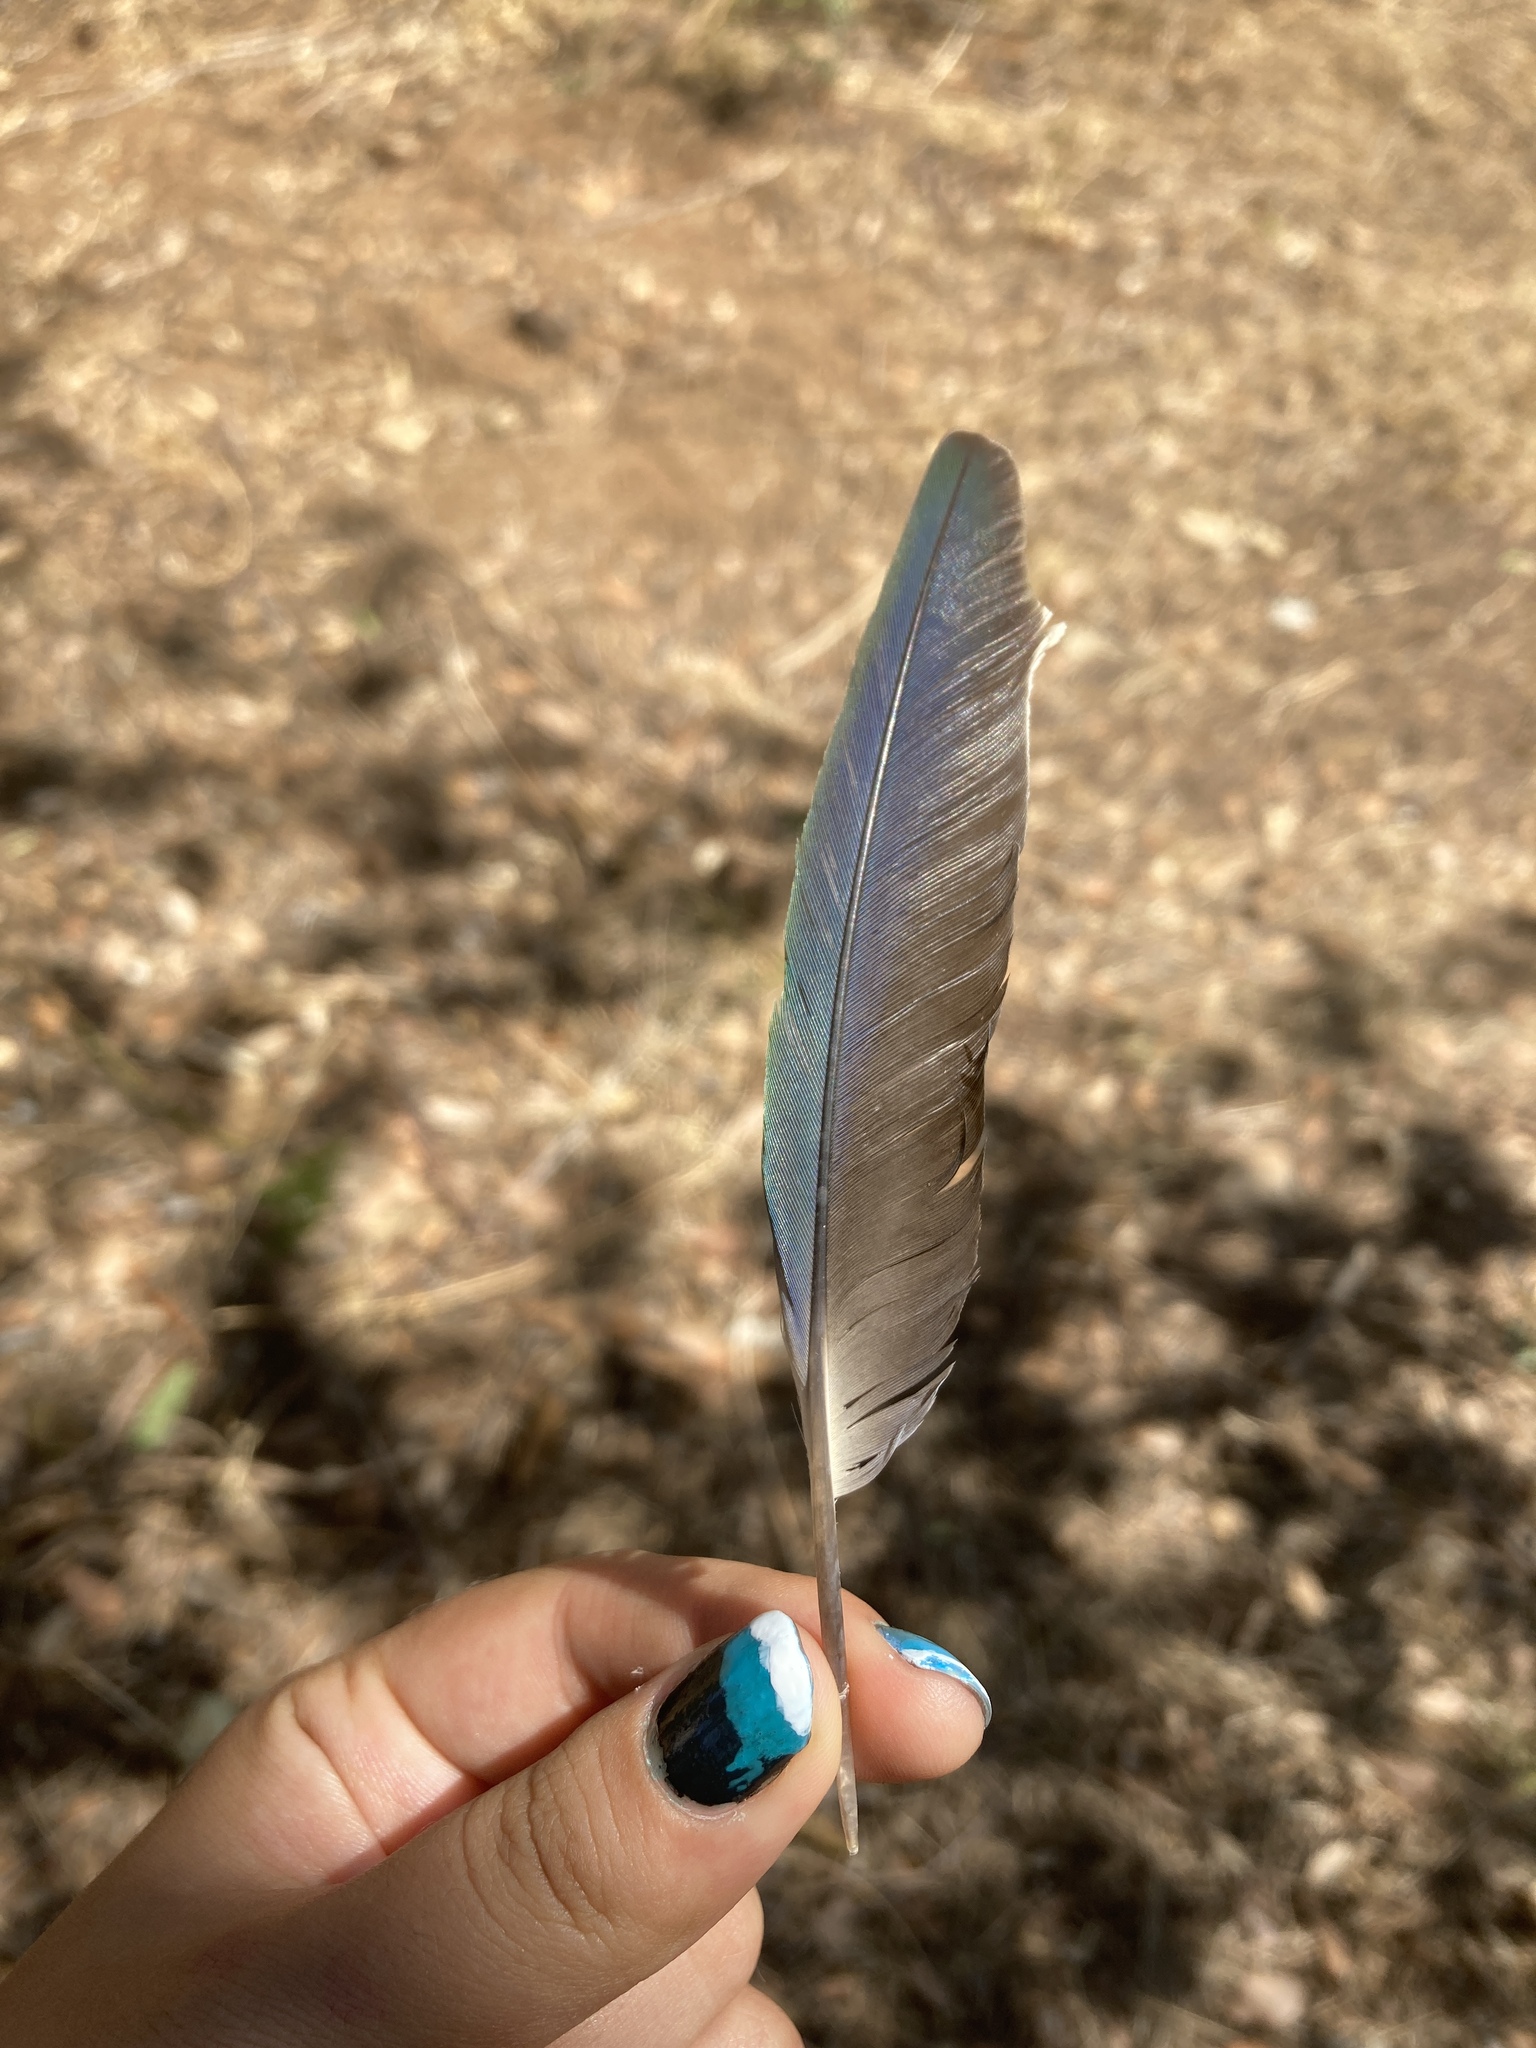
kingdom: Animalia
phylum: Chordata
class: Aves
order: Psittaciformes
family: Psittacidae
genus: Myiopsitta
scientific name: Myiopsitta monachus
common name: Monk parakeet
